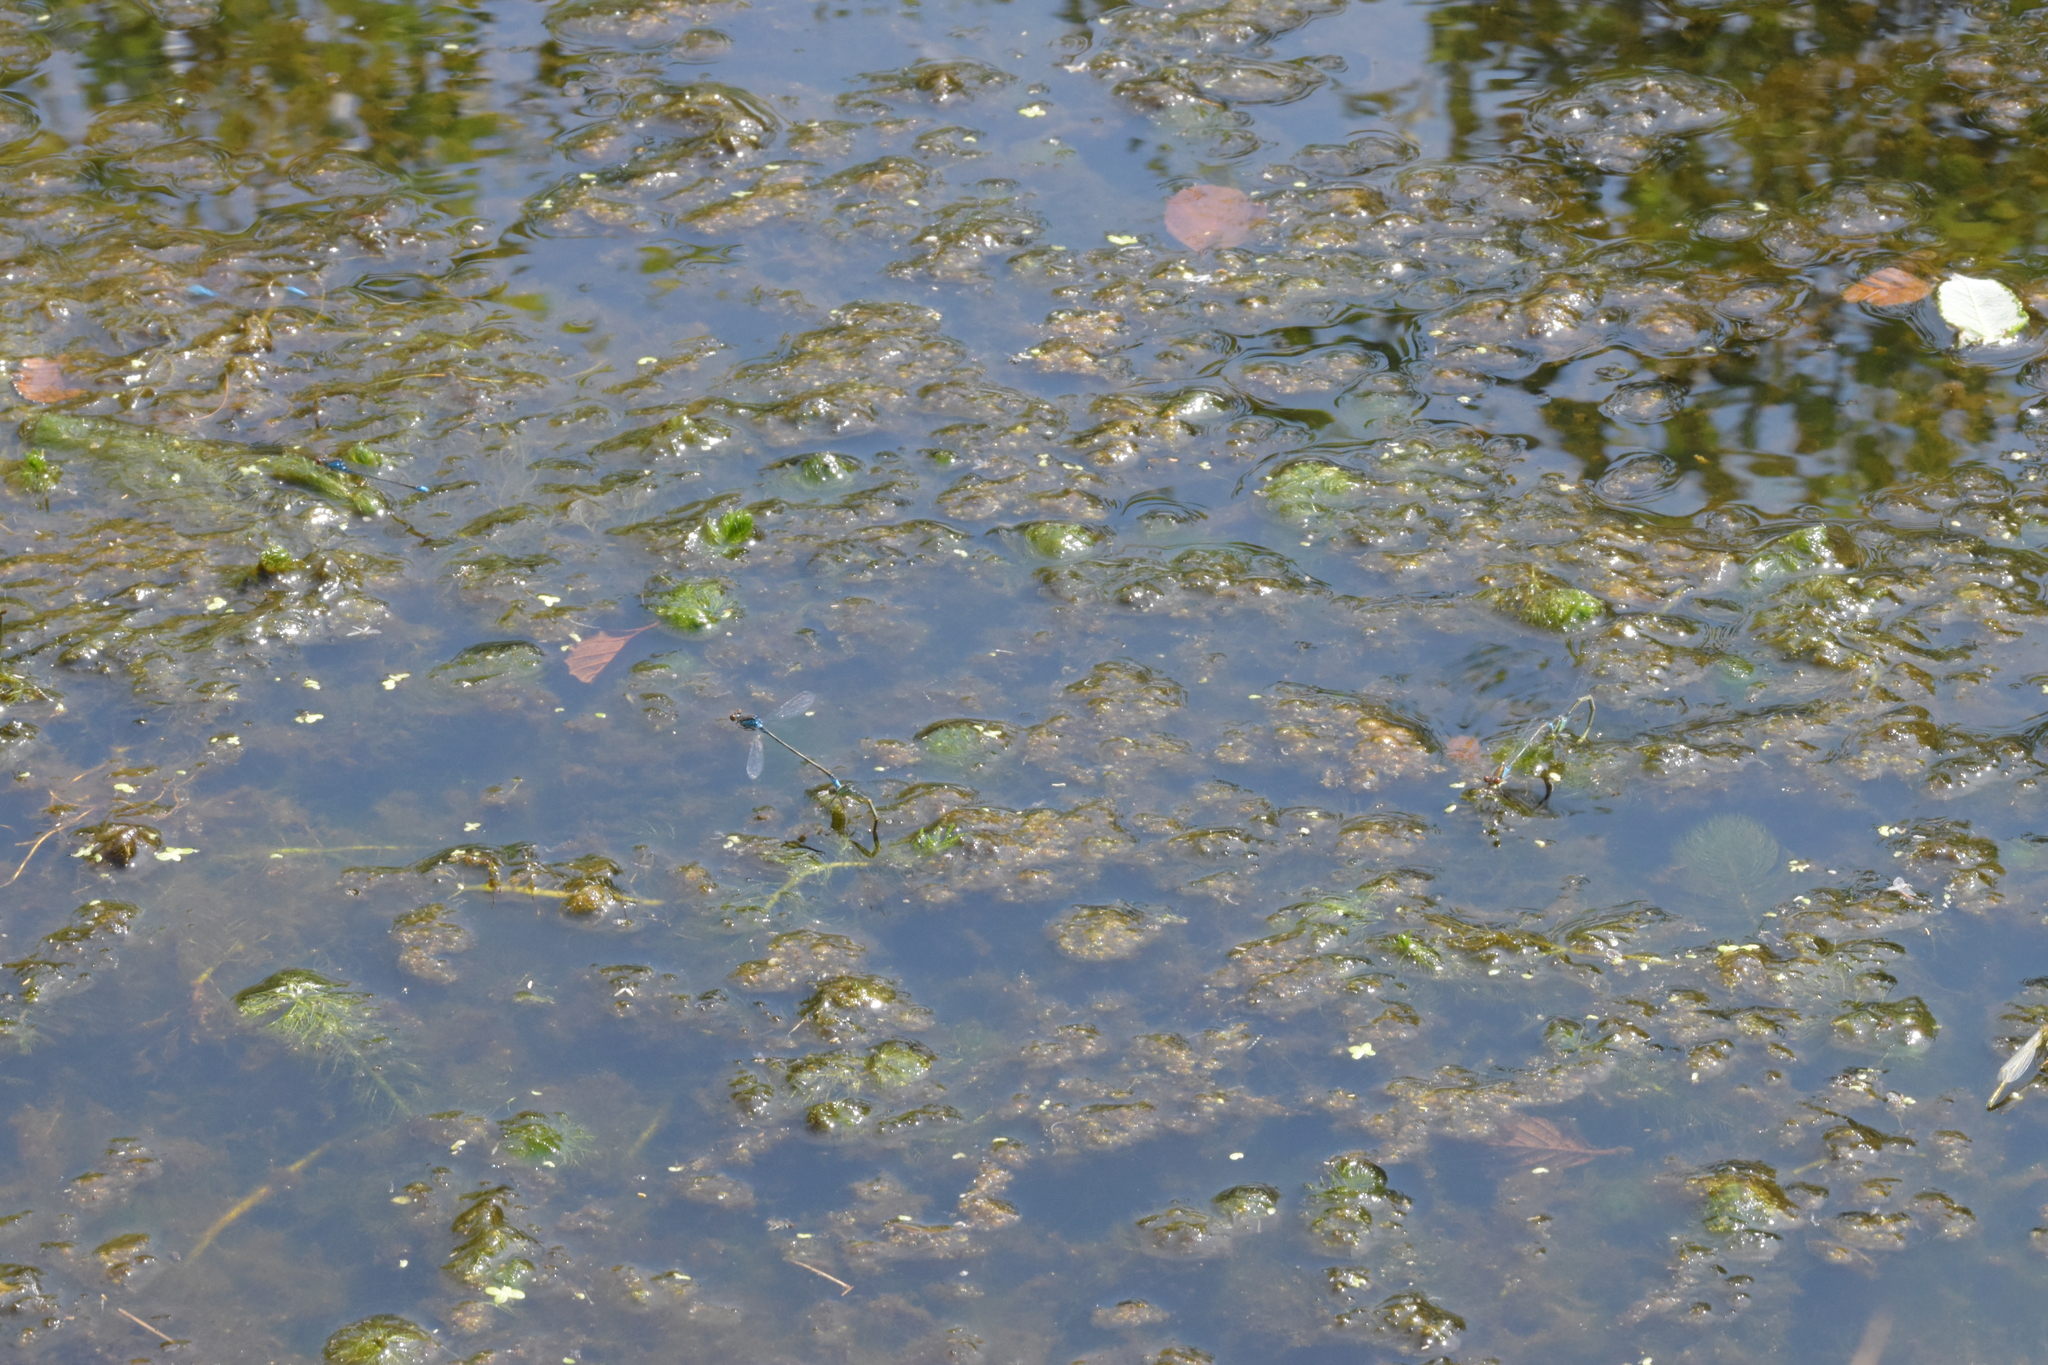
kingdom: Animalia
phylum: Arthropoda
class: Insecta
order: Odonata
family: Coenagrionidae
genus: Erythromma
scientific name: Erythromma viridulum
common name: Small red-eyed damselfly
